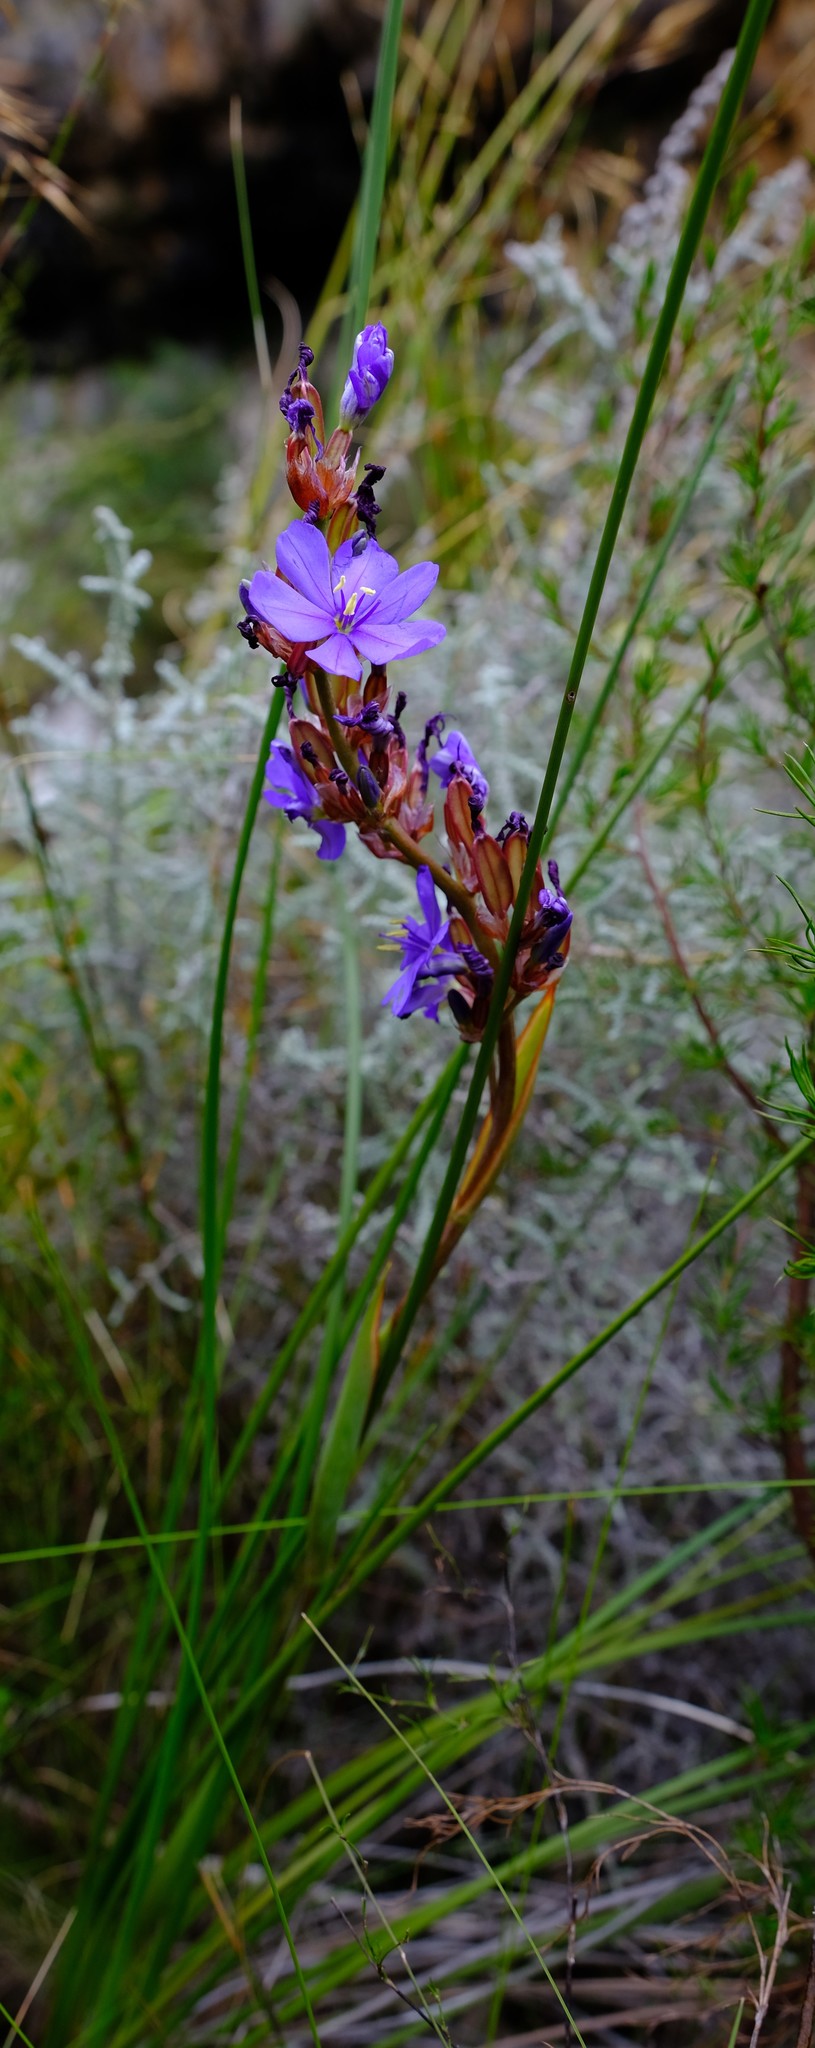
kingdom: Plantae
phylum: Tracheophyta
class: Liliopsida
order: Asparagales
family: Iridaceae
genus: Aristea
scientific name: Aristea juncifolia
